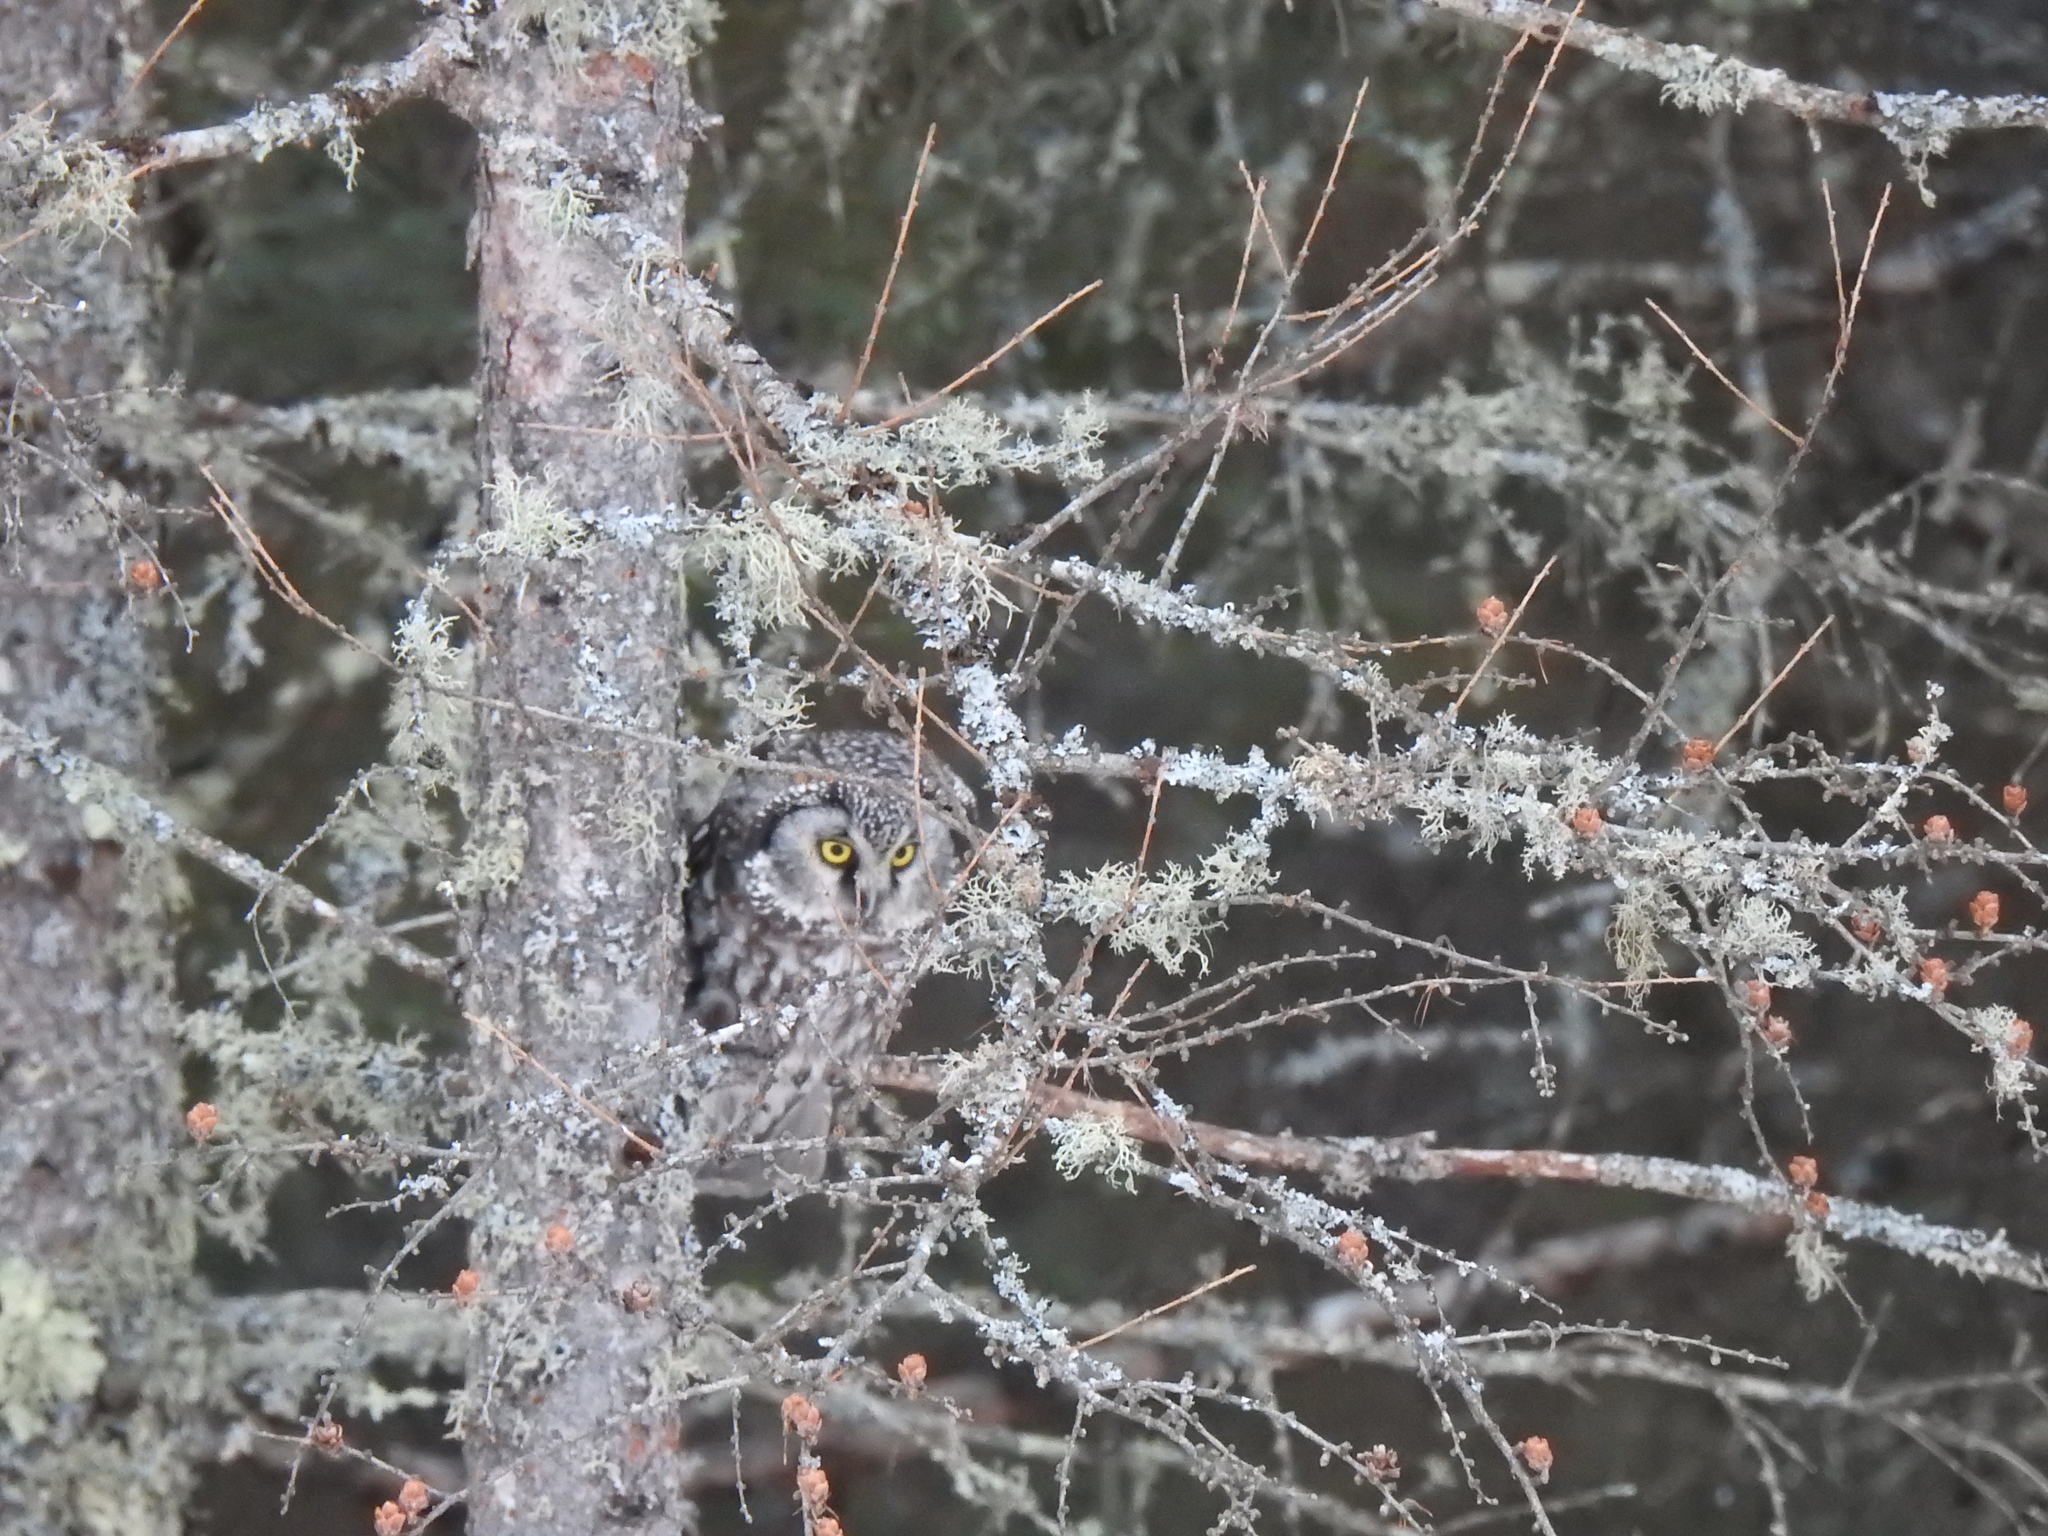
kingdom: Animalia
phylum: Chordata
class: Aves
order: Strigiformes
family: Strigidae
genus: Aegolius
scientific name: Aegolius funereus
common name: Boreal owl
